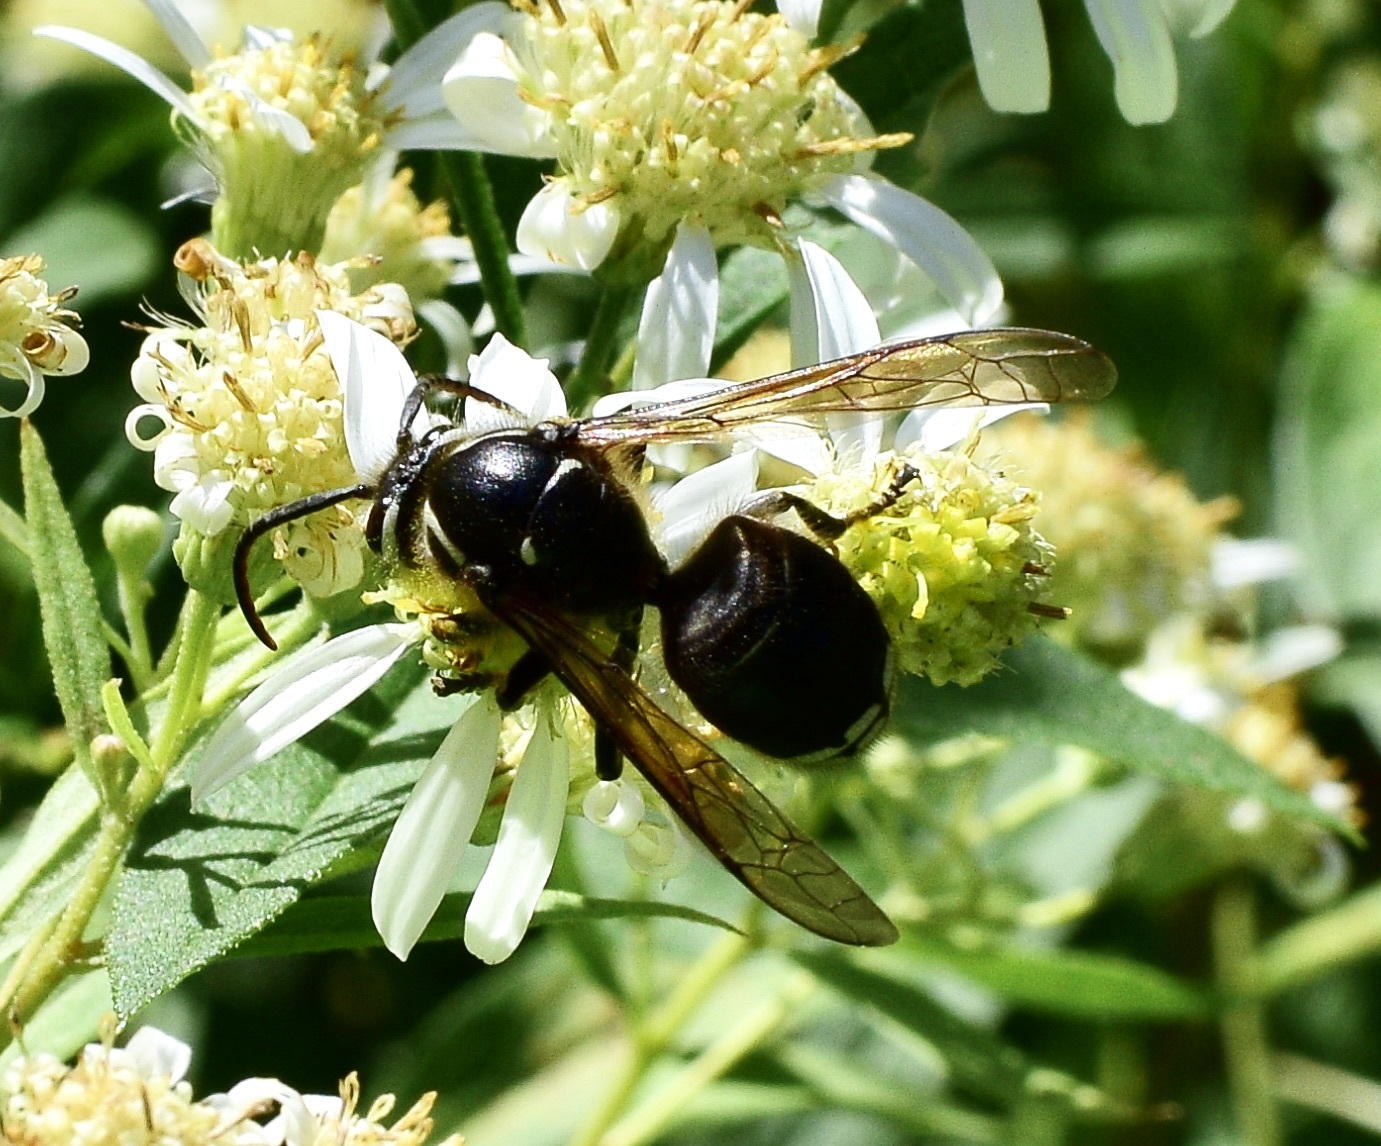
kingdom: Animalia
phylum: Arthropoda
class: Insecta
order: Hymenoptera
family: Vespidae
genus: Dolichovespula
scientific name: Dolichovespula maculata
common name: Bald-faced hornet
